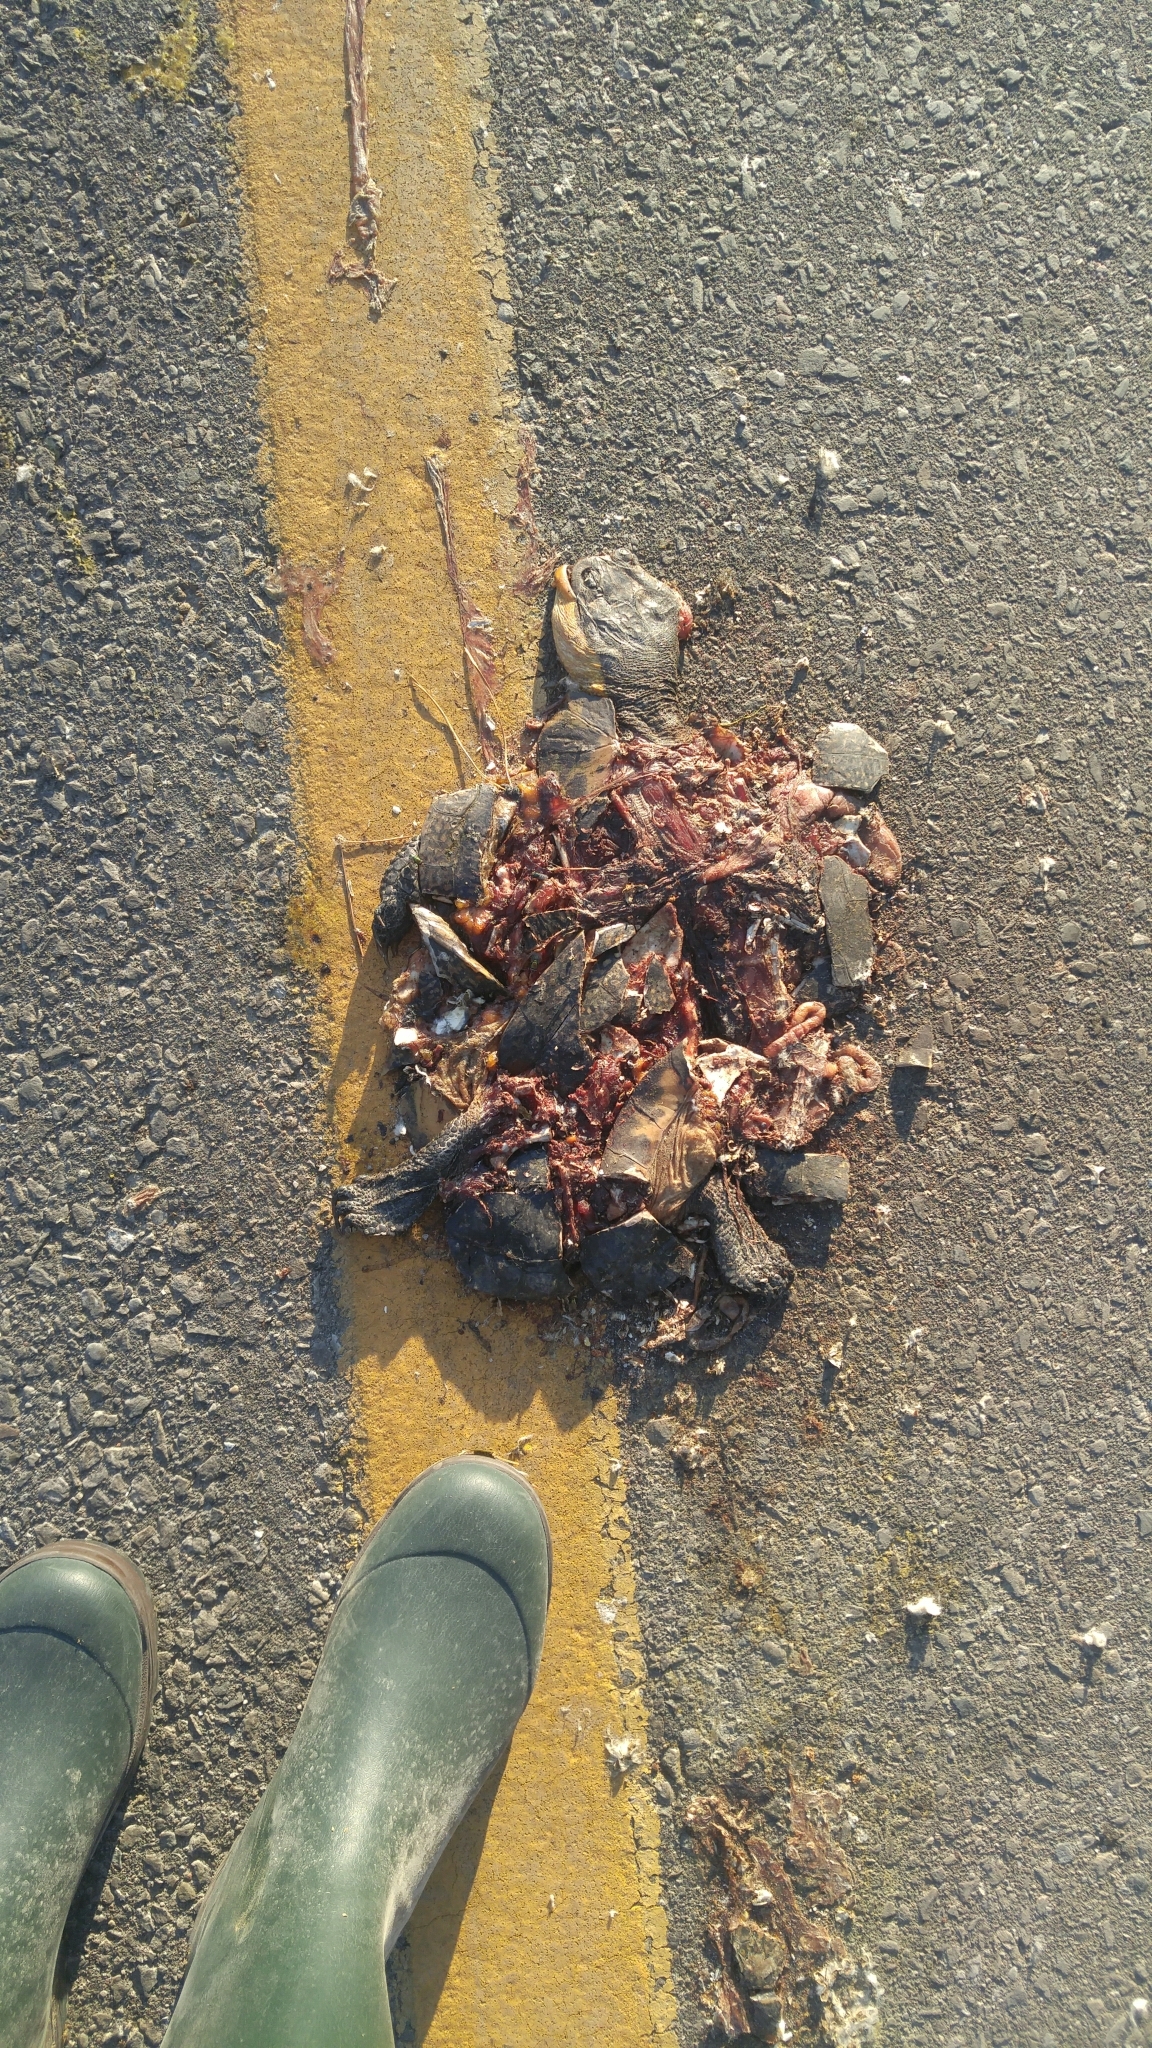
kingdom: Animalia
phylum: Chordata
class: Testudines
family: Emydidae
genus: Emys
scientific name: Emys blandingii
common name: Blanding's turtle
